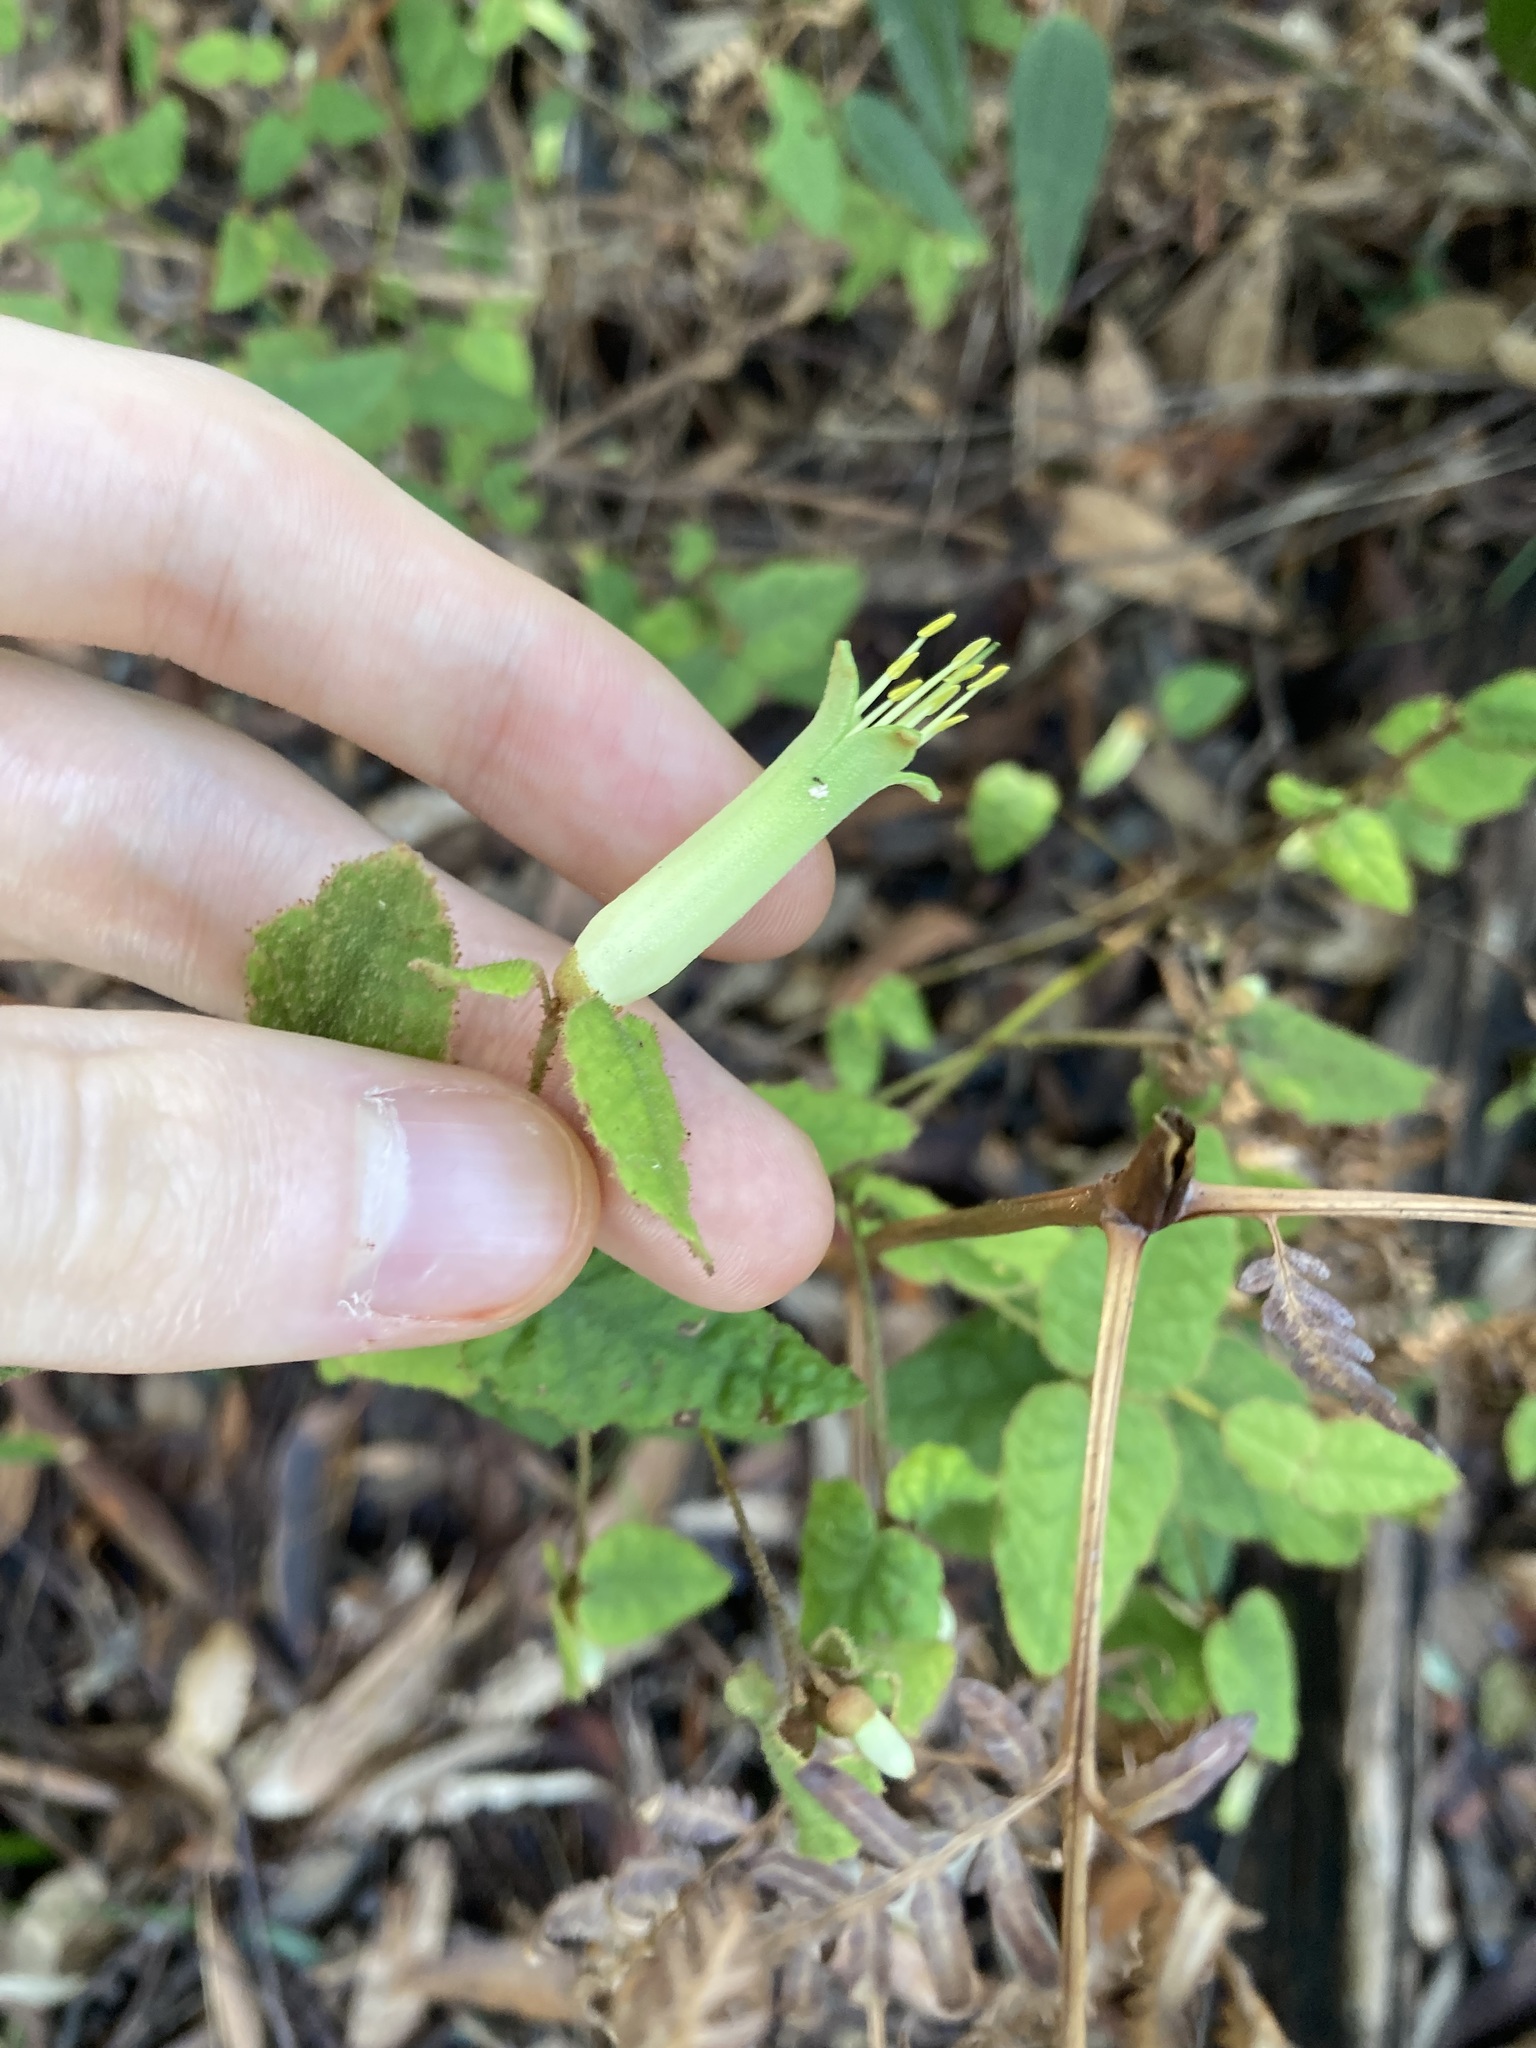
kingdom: Plantae
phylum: Tracheophyta
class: Magnoliopsida
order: Sapindales
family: Rutaceae
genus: Correa
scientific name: Correa reflexa
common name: Common correa
